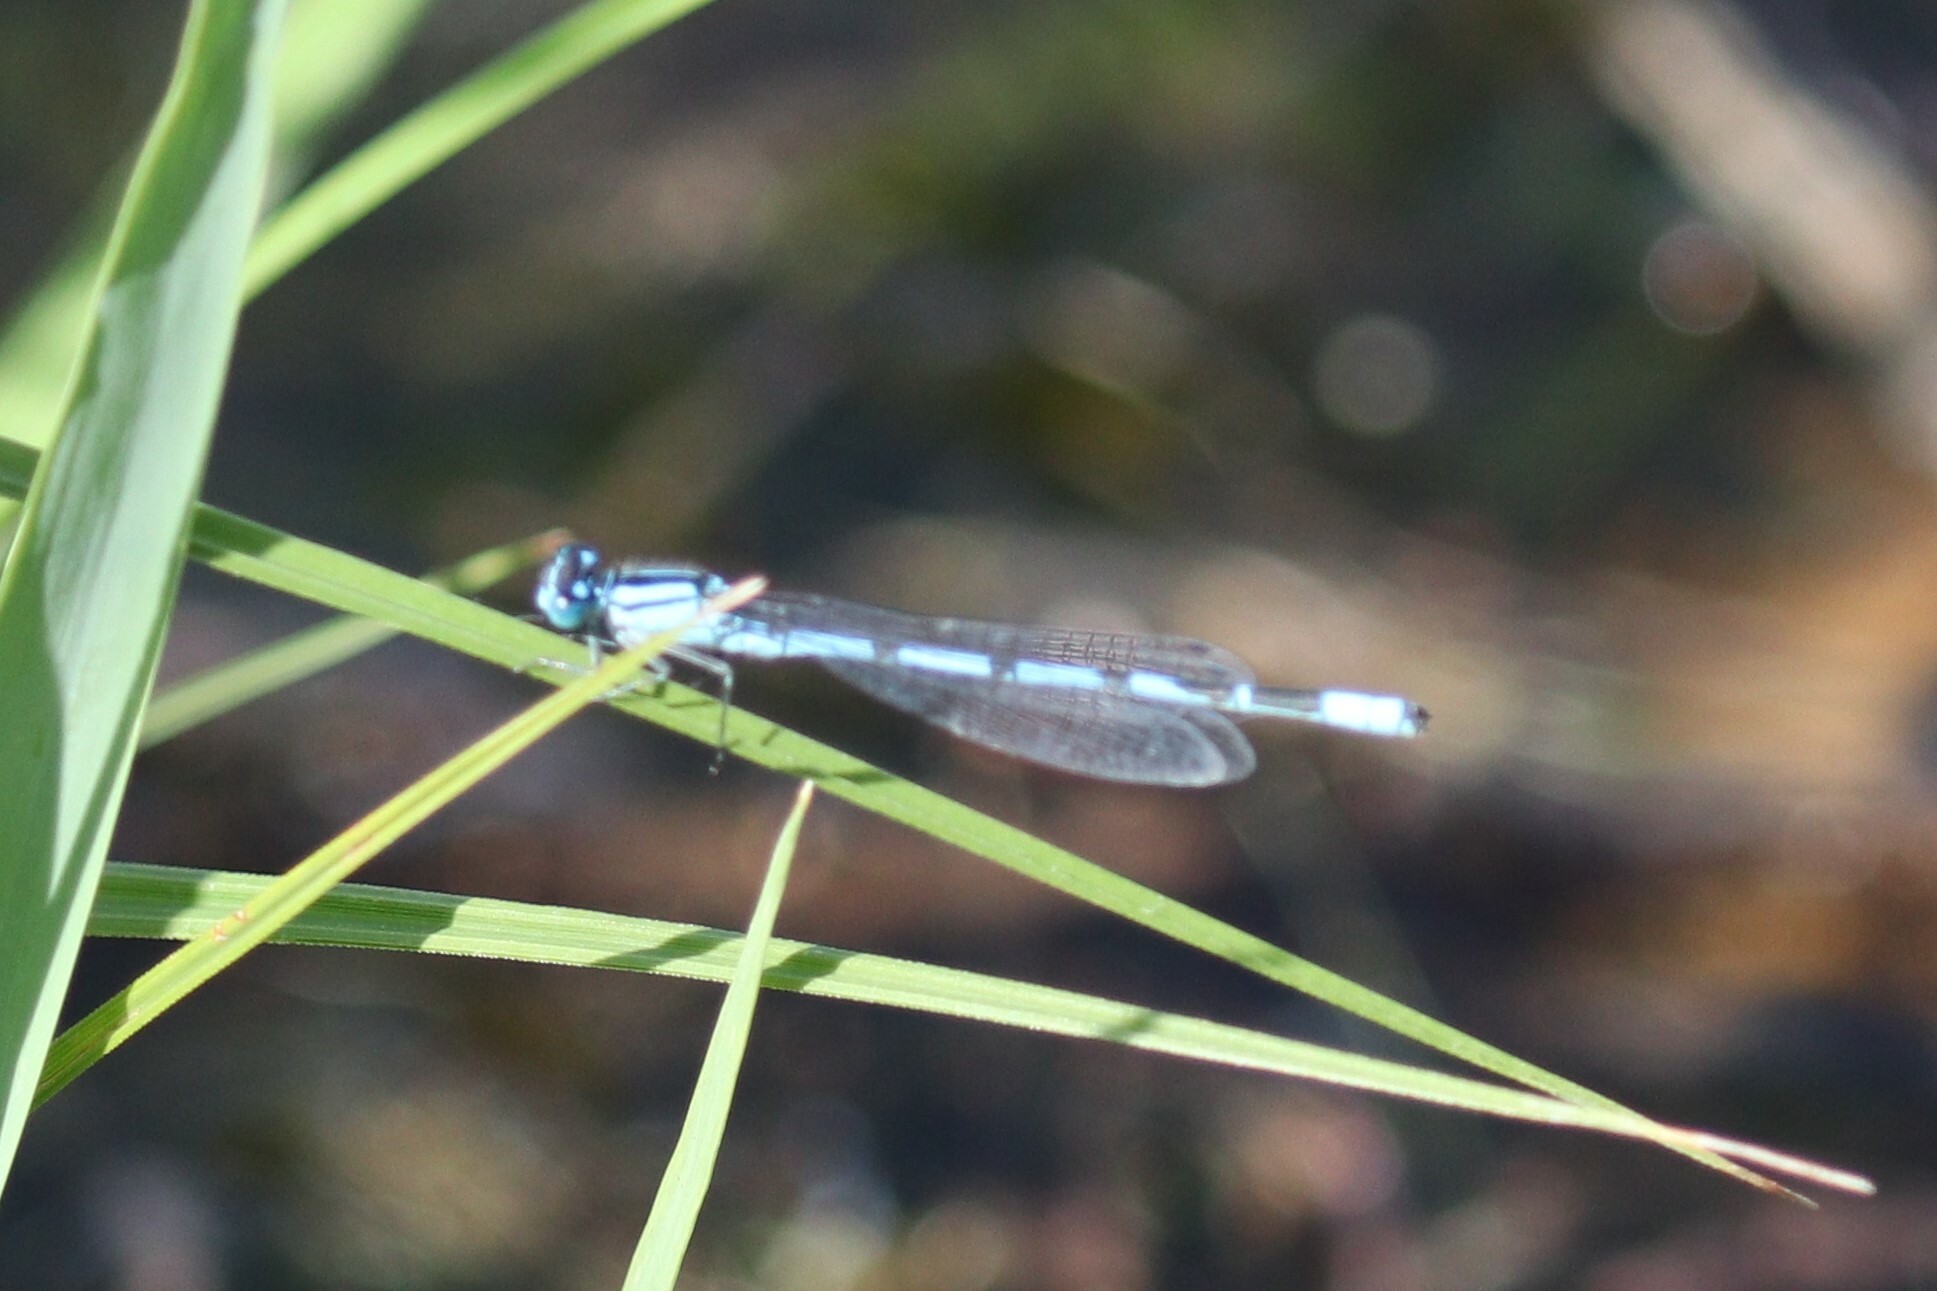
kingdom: Animalia
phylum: Arthropoda
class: Insecta
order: Odonata
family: Coenagrionidae
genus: Enallagma
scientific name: Enallagma cyathigerum
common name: Common blue damselfly
